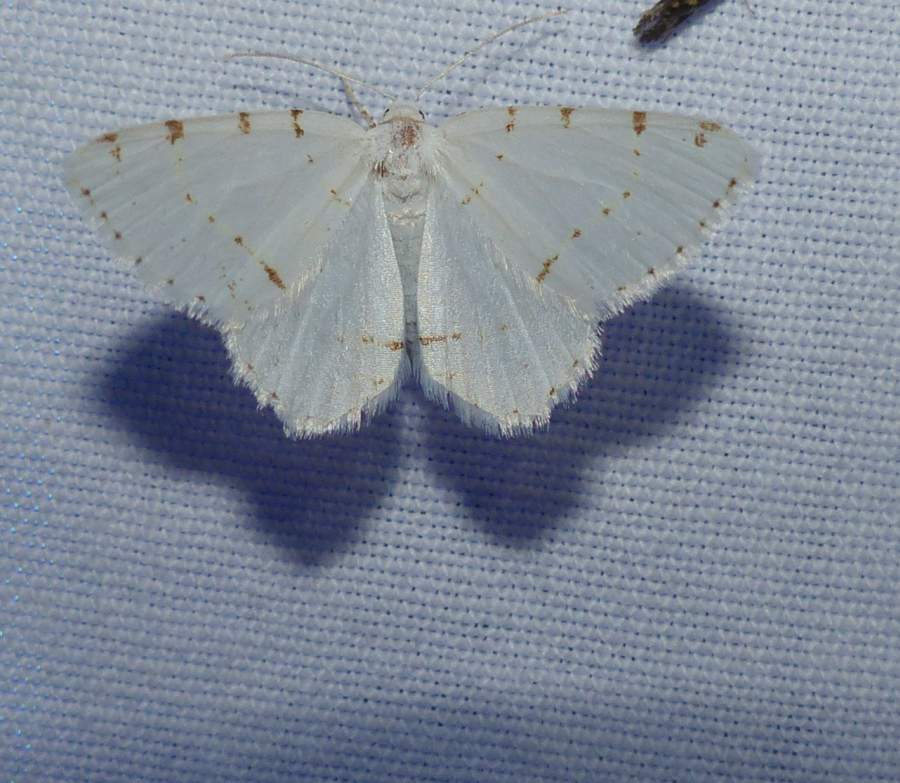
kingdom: Animalia
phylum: Arthropoda
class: Insecta
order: Lepidoptera
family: Geometridae
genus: Macaria
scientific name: Macaria pustularia
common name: Lesser maple spanworm moth
